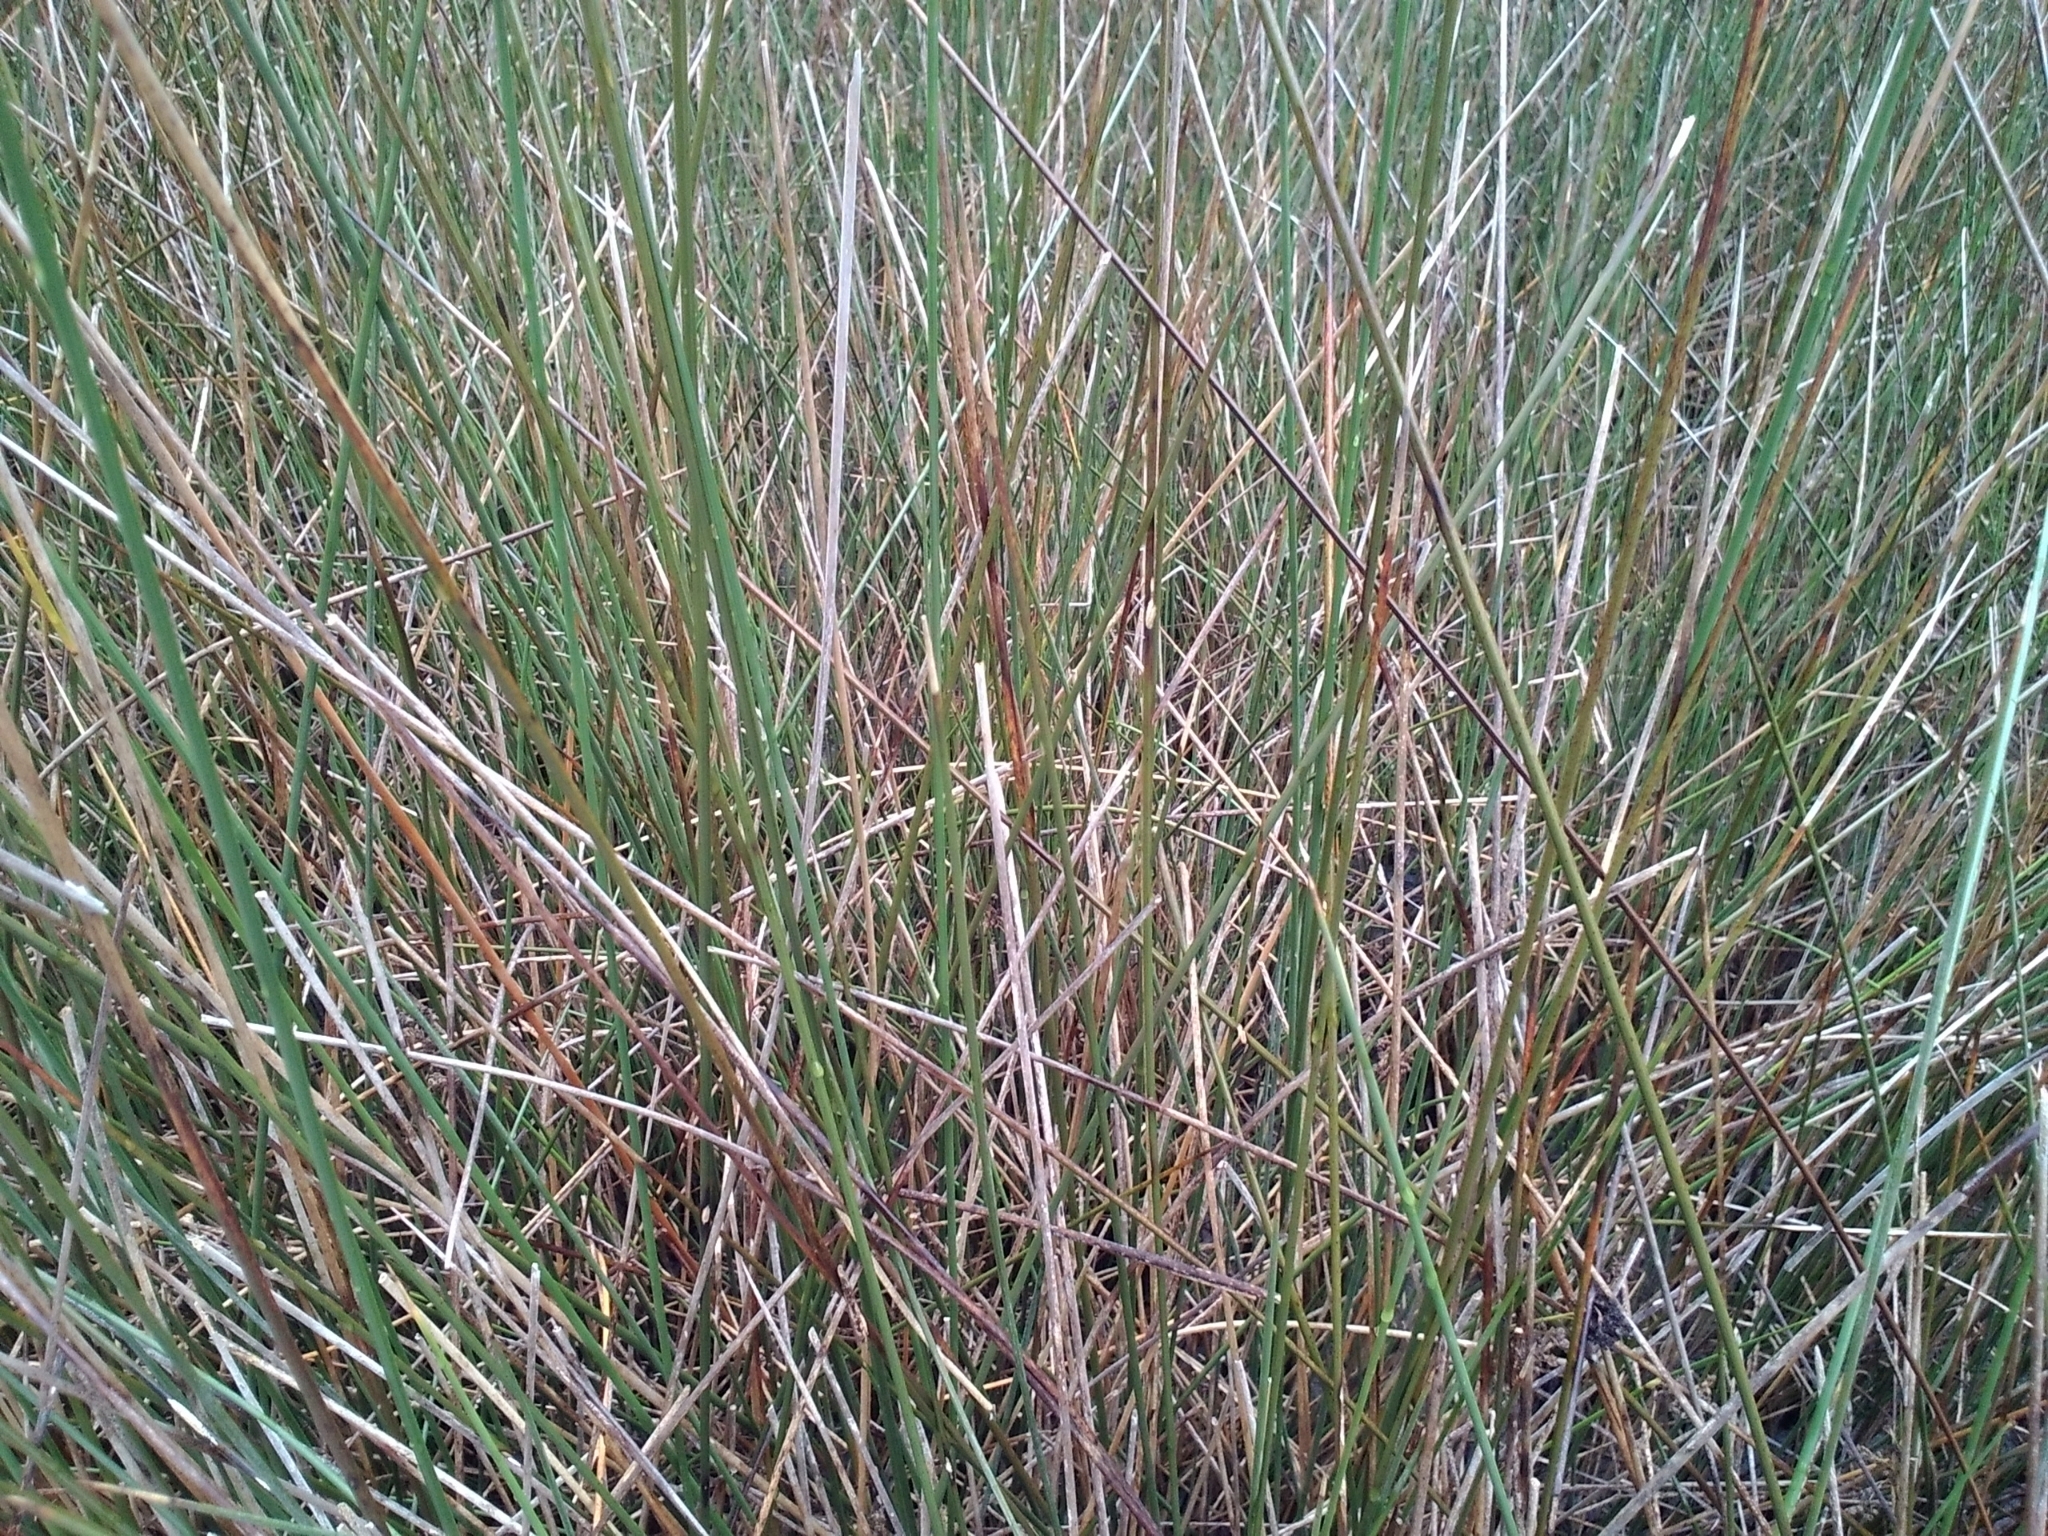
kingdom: Plantae
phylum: Tracheophyta
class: Liliopsida
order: Poales
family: Juncaceae
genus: Juncus
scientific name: Juncus roemerianus
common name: Roemer's rush
